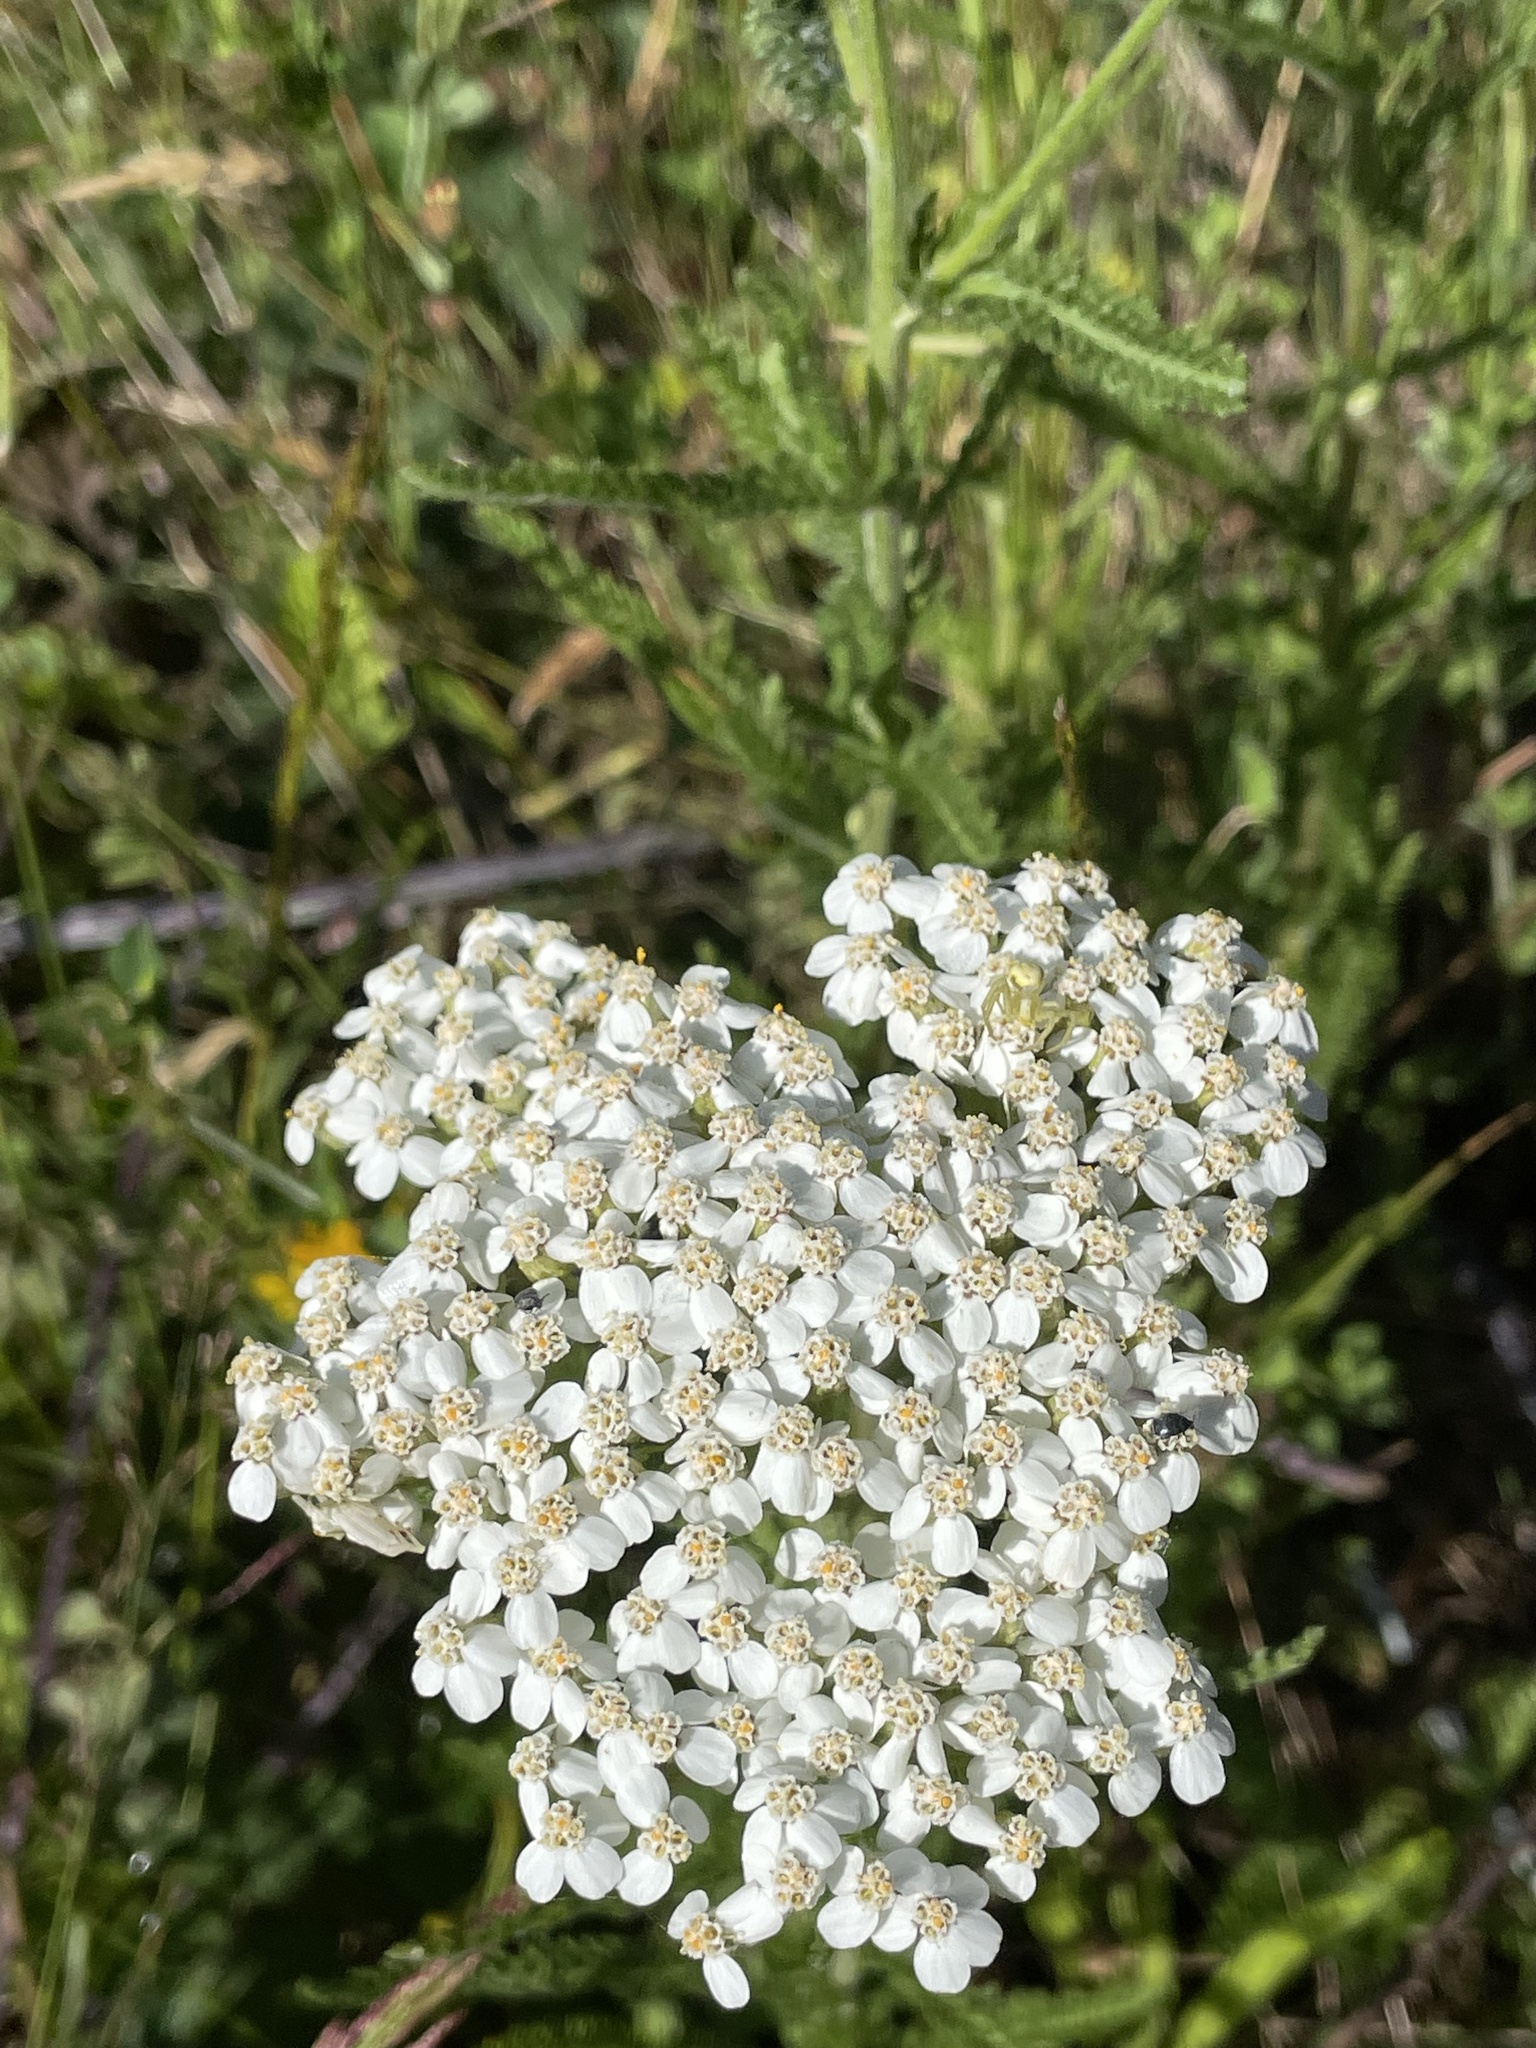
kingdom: Plantae
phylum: Tracheophyta
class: Magnoliopsida
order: Asterales
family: Asteraceae
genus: Achillea
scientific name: Achillea millefolium
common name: Yarrow
